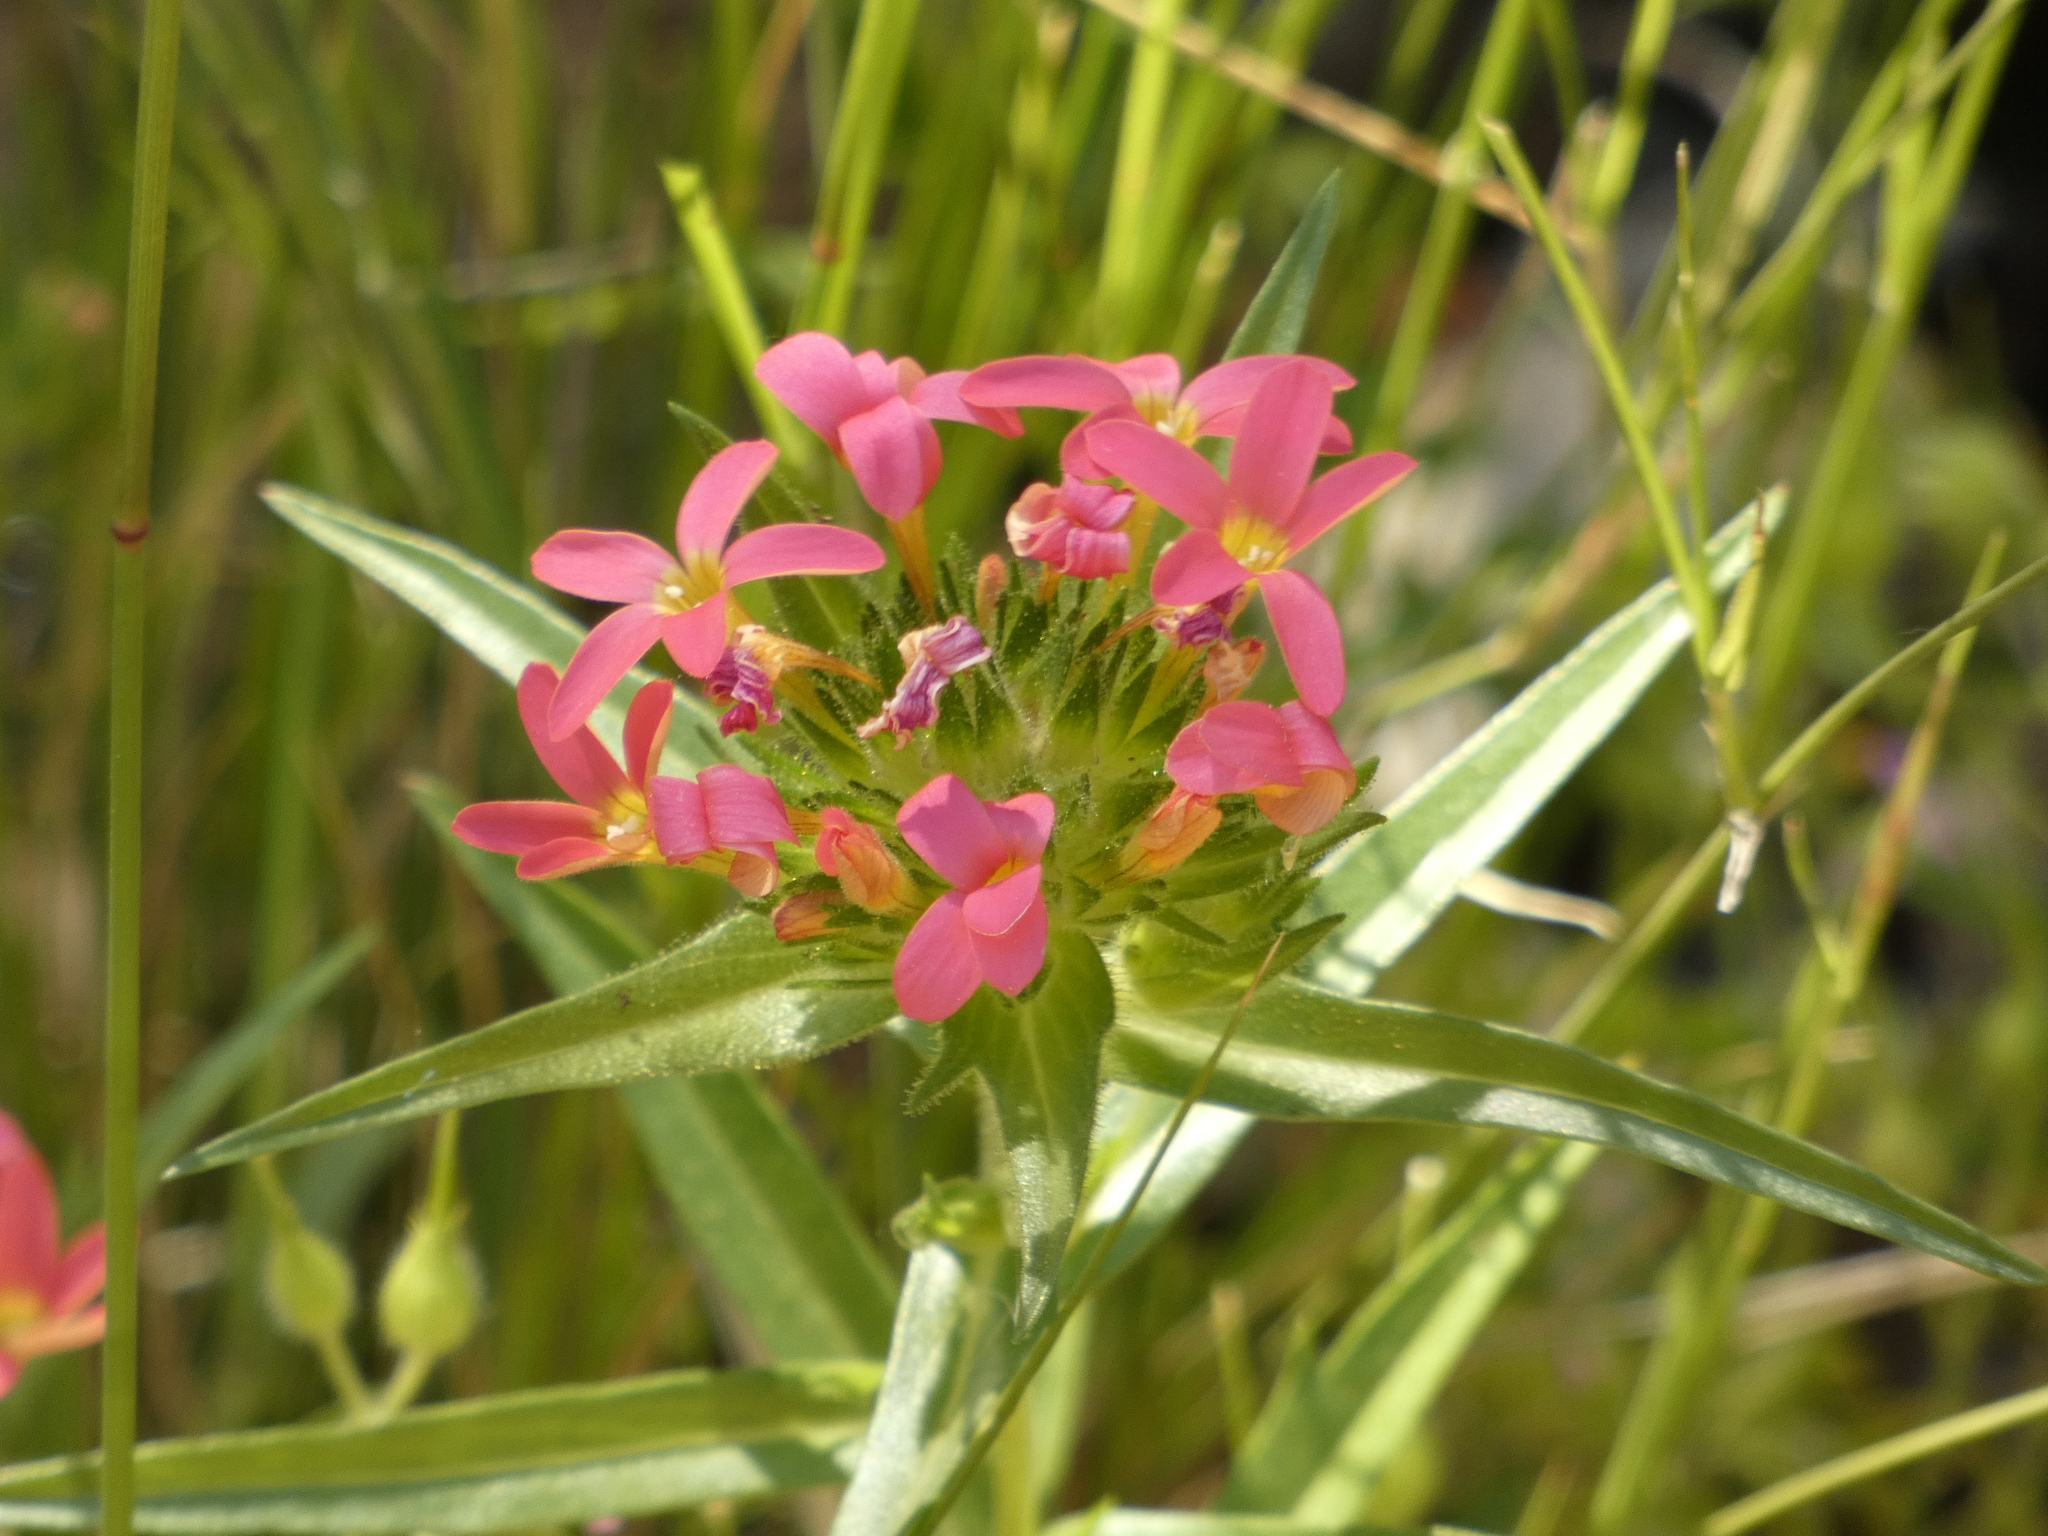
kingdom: Plantae
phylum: Tracheophyta
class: Magnoliopsida
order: Ericales
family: Polemoniaceae
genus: Collomia
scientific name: Collomia biflora
